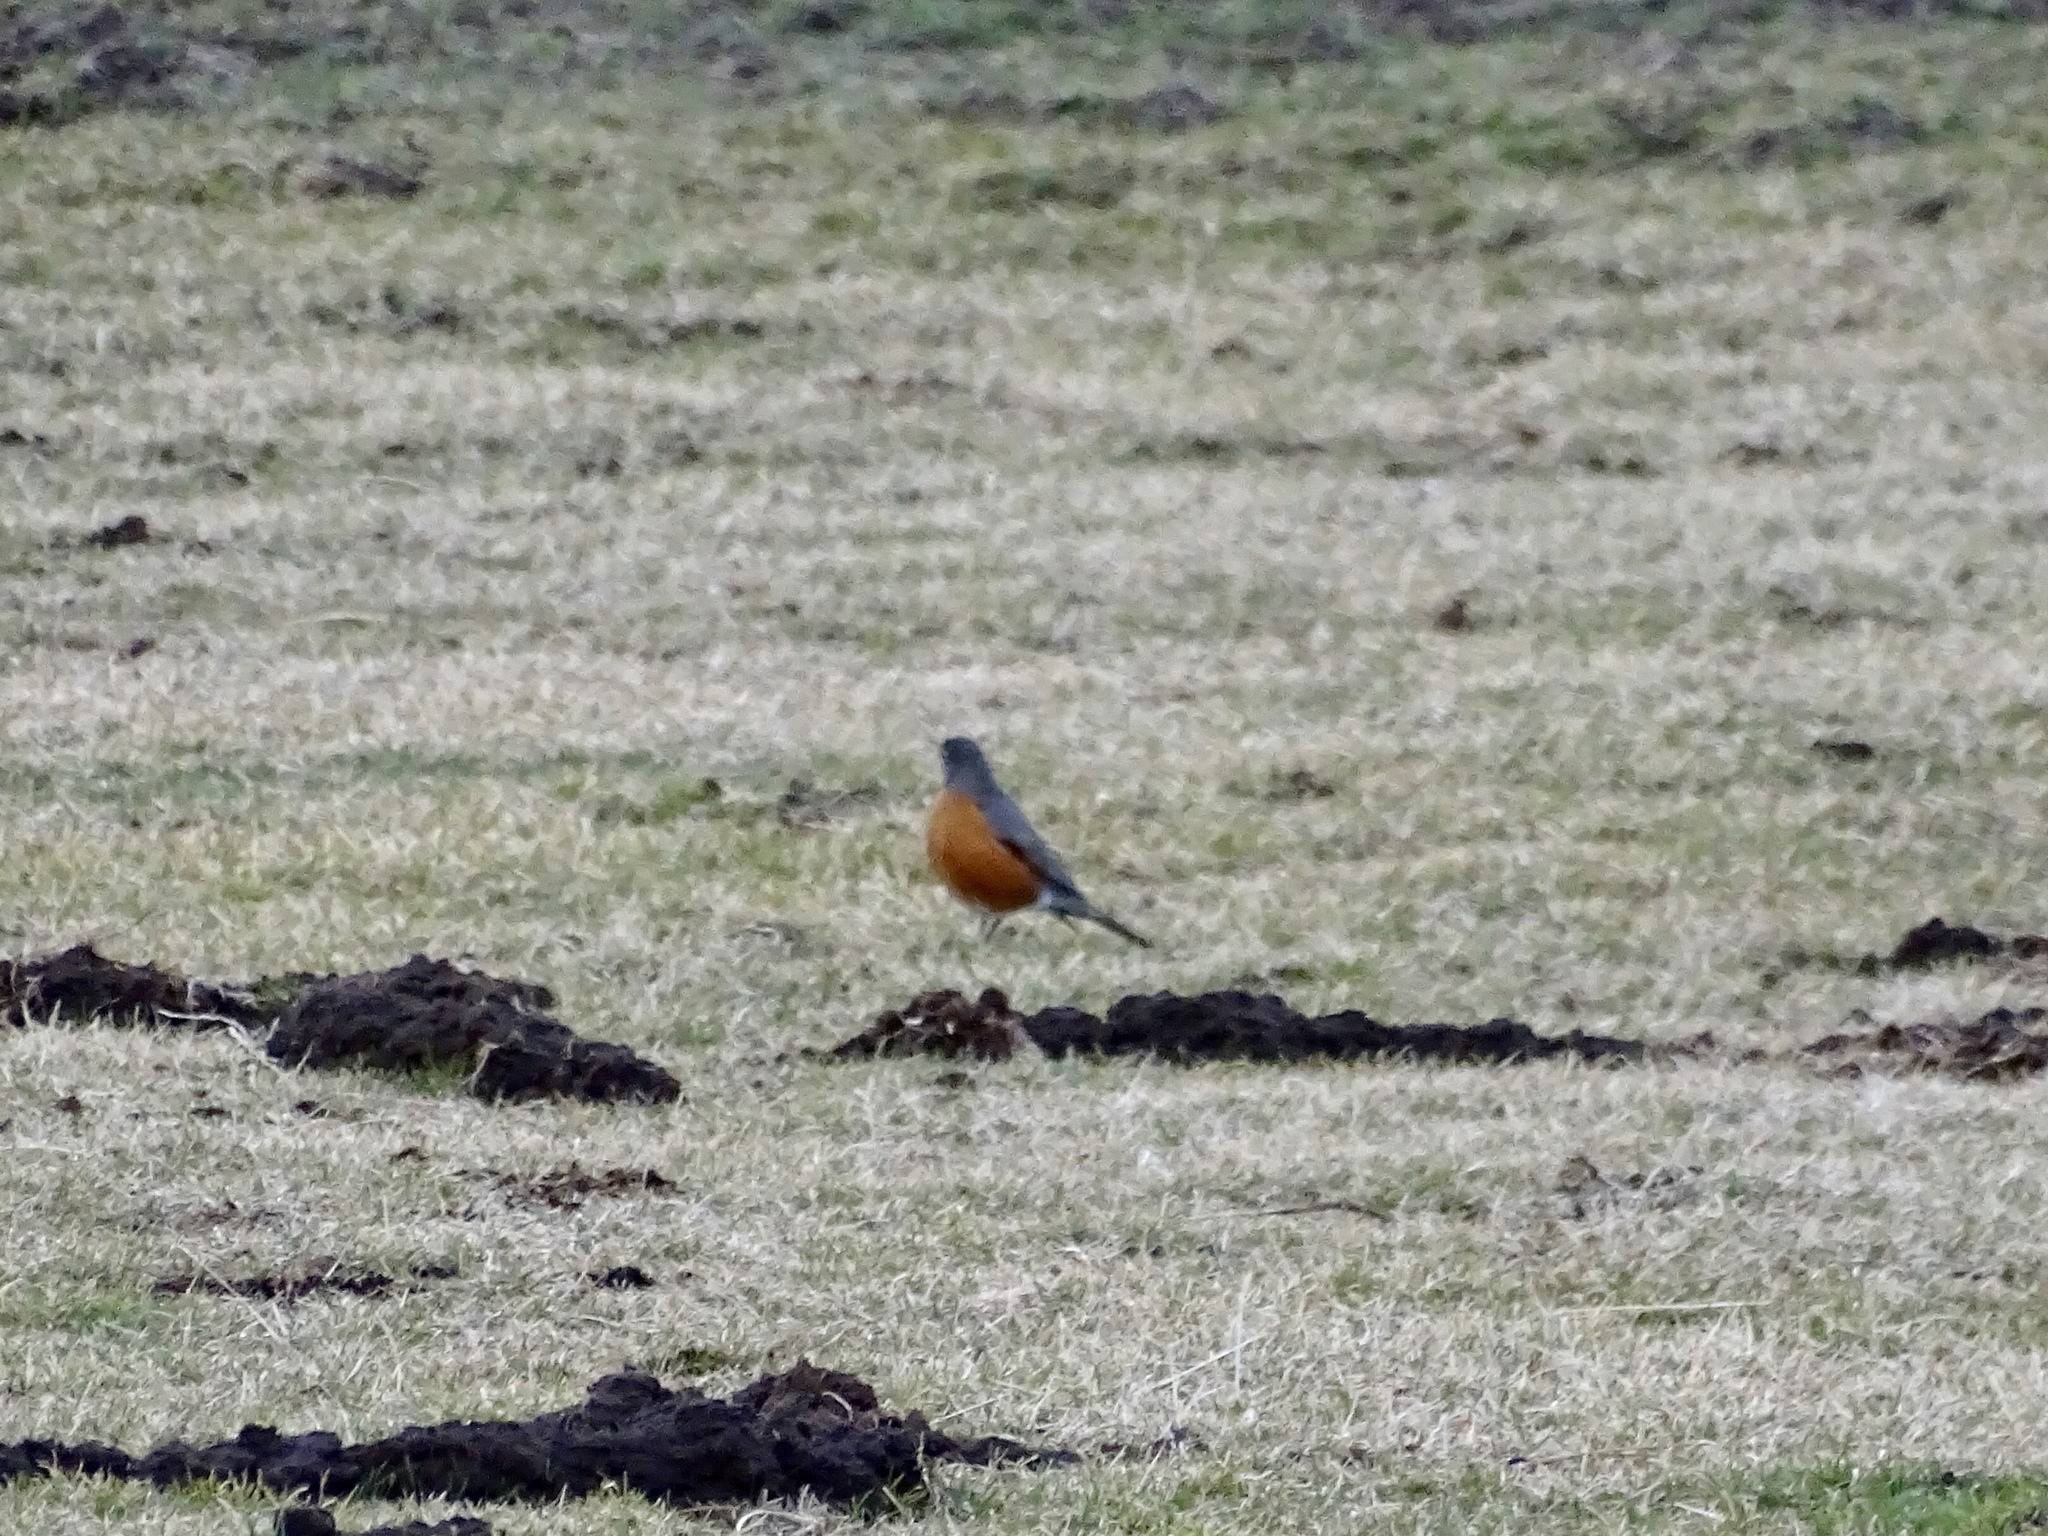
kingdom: Animalia
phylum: Chordata
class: Aves
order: Passeriformes
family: Turdidae
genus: Turdus
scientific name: Turdus migratorius
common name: American robin
